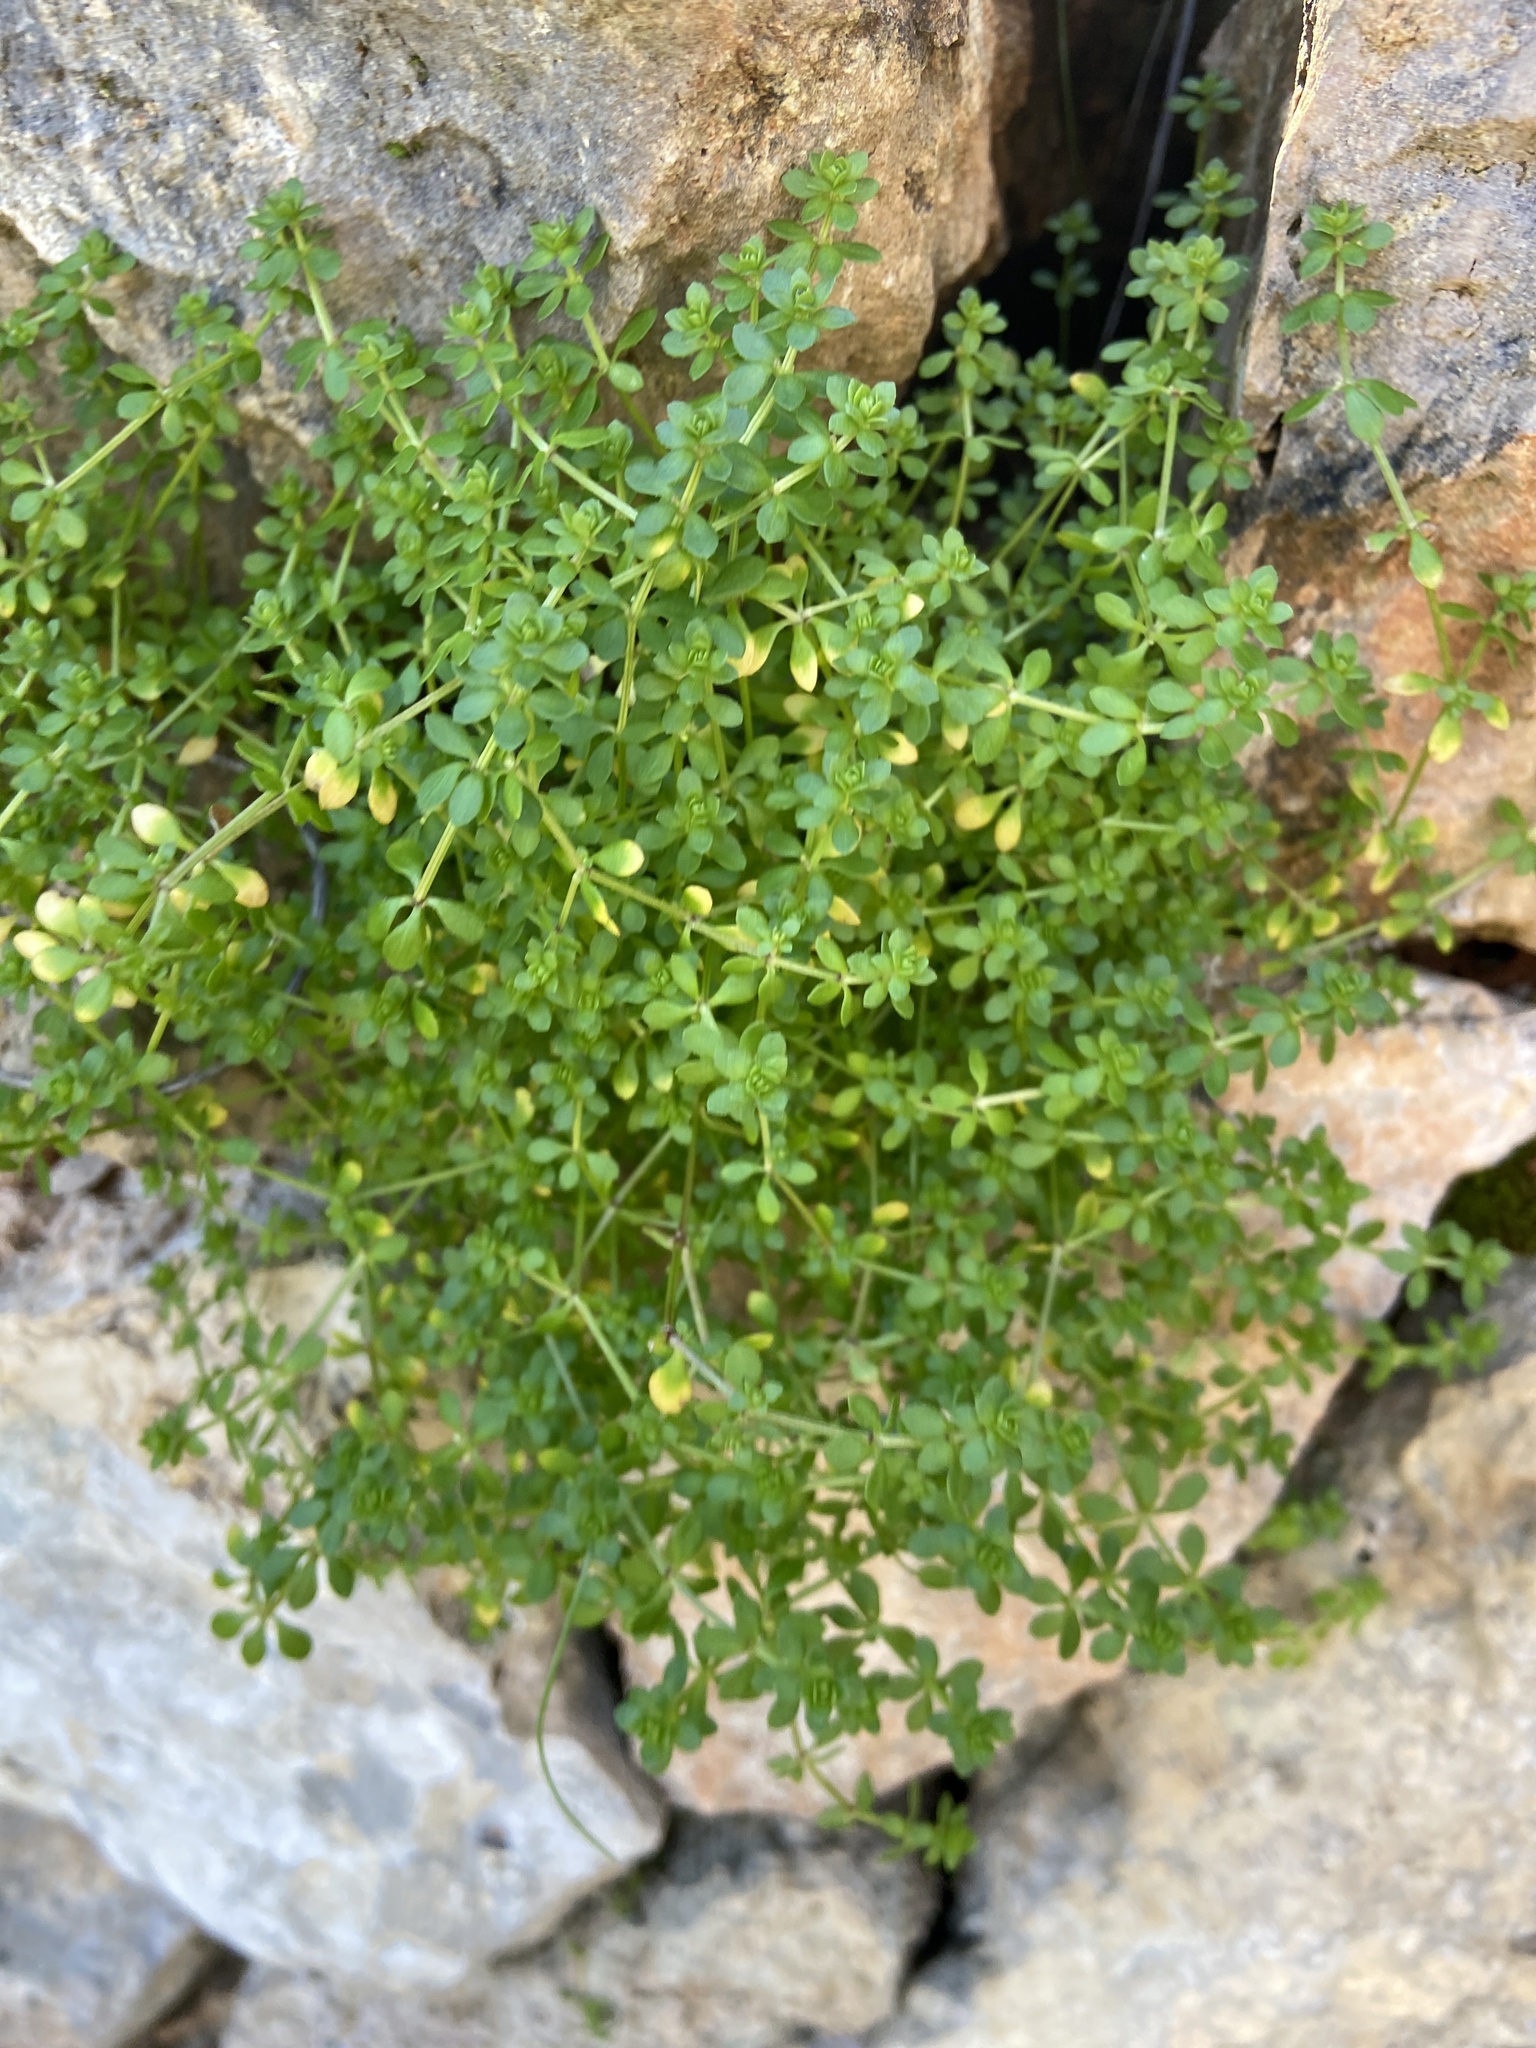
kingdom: Plantae
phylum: Tracheophyta
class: Magnoliopsida
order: Gentianales
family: Rubiaceae
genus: Valantia
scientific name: Valantia muralis
